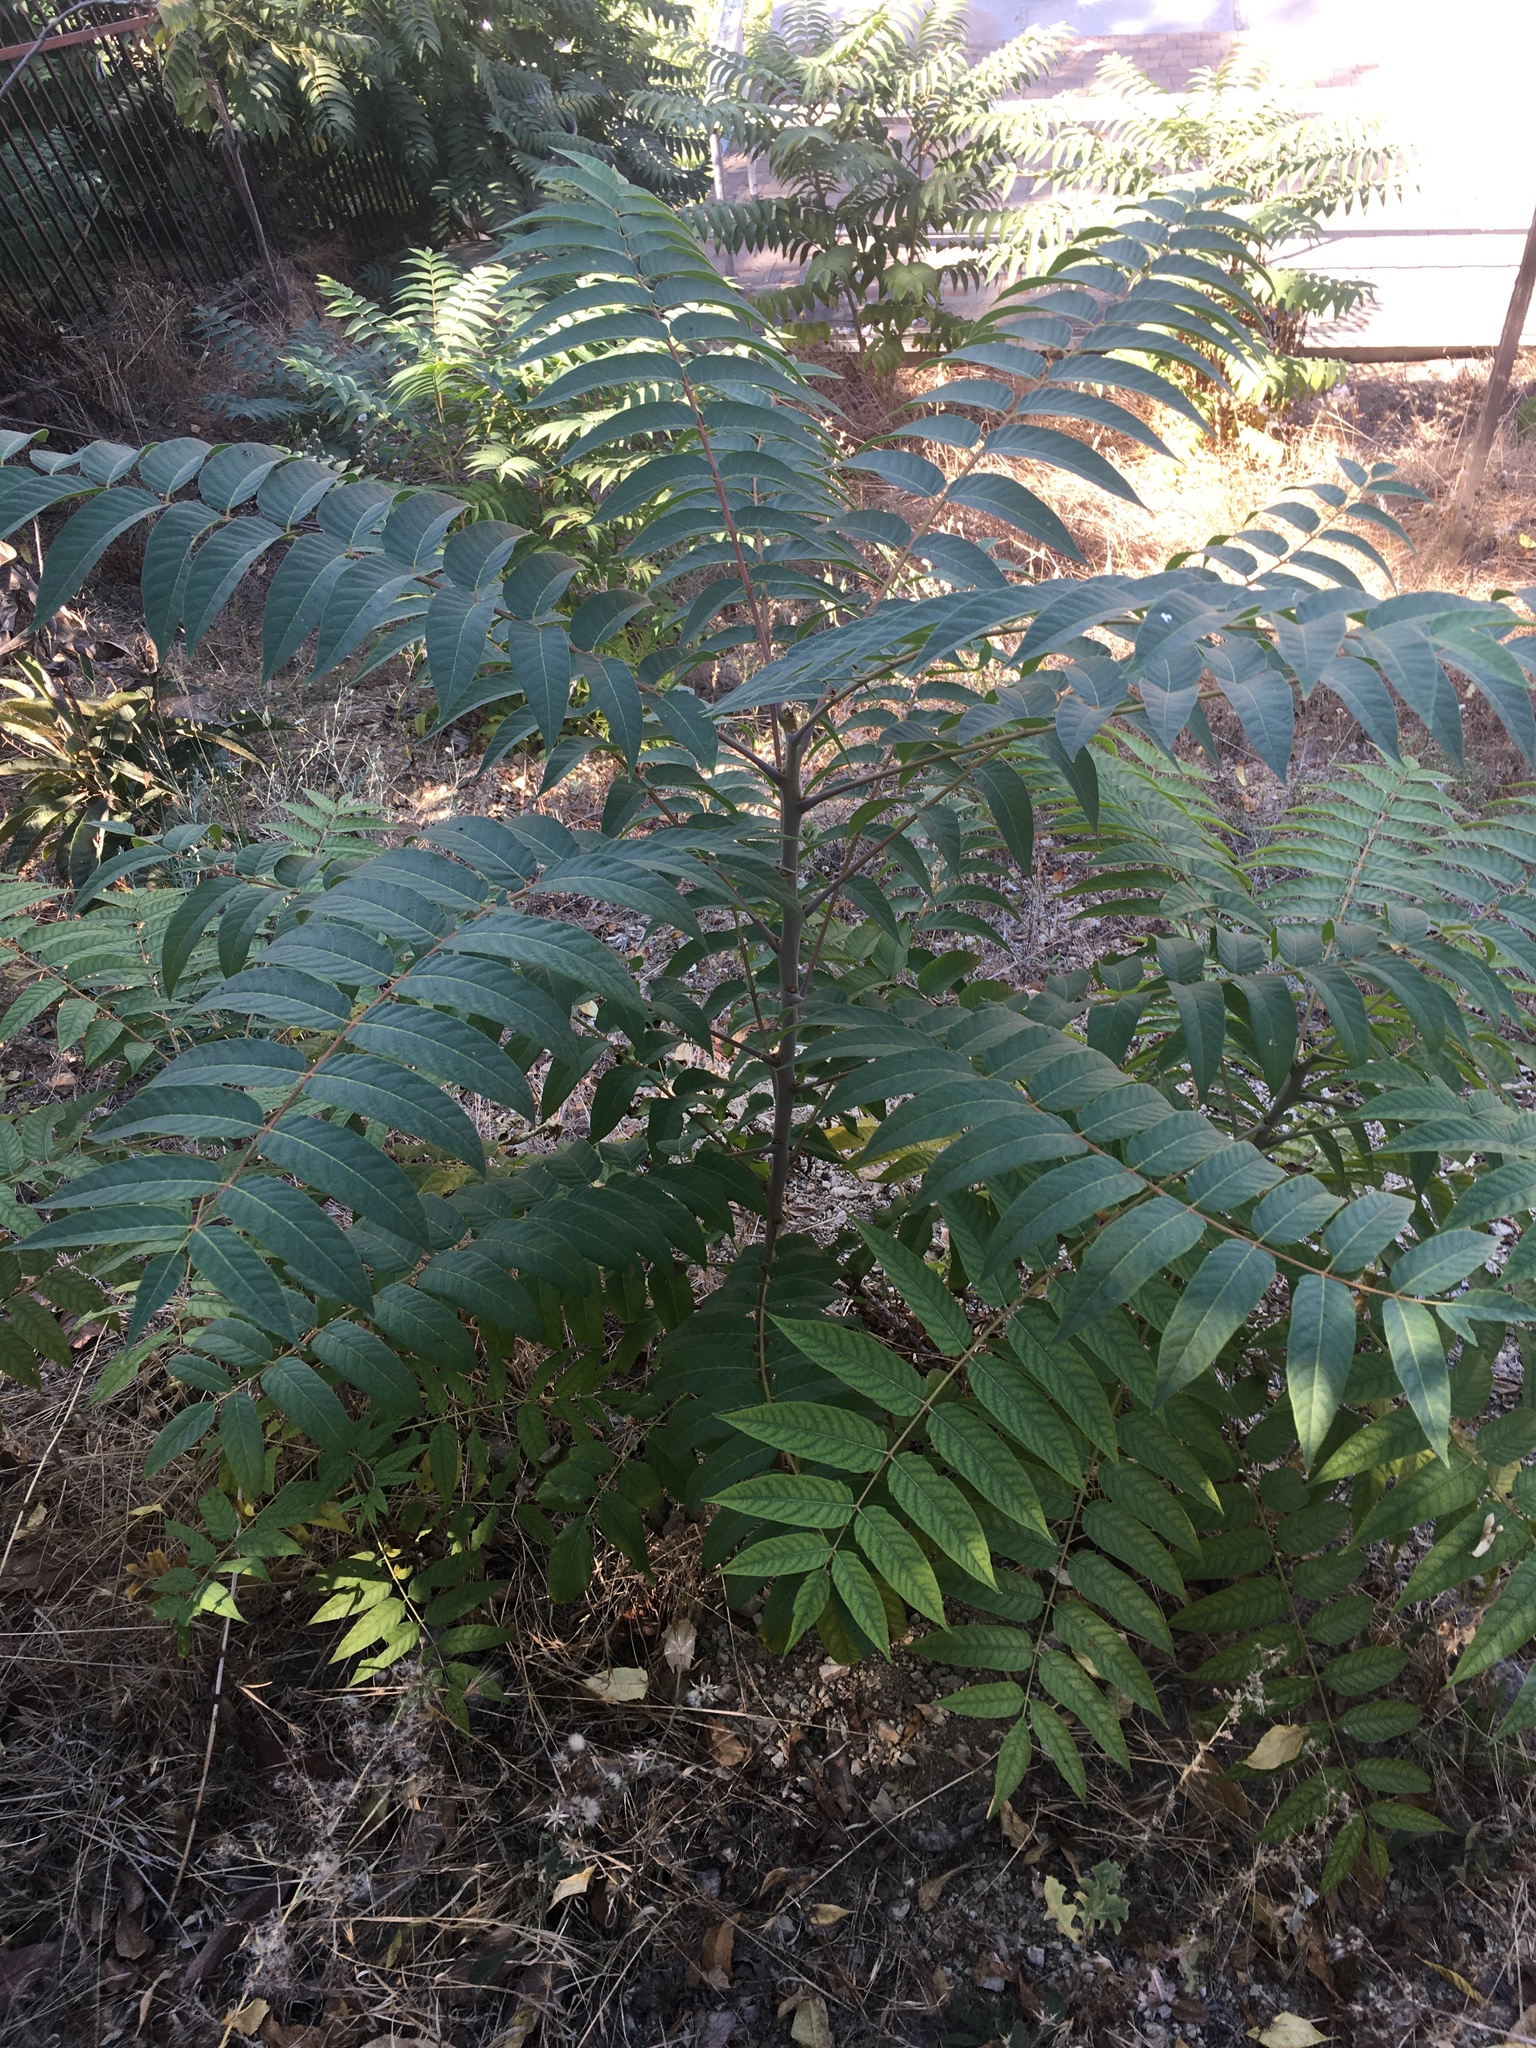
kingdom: Plantae
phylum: Tracheophyta
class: Magnoliopsida
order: Sapindales
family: Simaroubaceae
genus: Ailanthus
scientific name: Ailanthus altissima
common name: Tree-of-heaven
